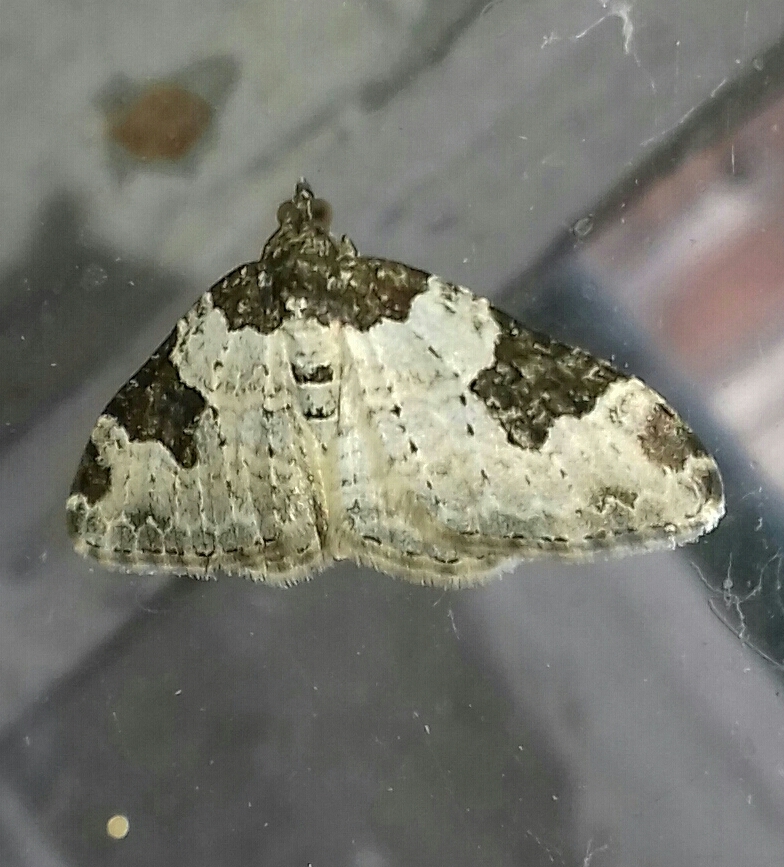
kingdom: Animalia
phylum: Arthropoda
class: Insecta
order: Lepidoptera
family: Geometridae
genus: Xanthorhoe
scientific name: Xanthorhoe fluctuata
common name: Garden carpet
